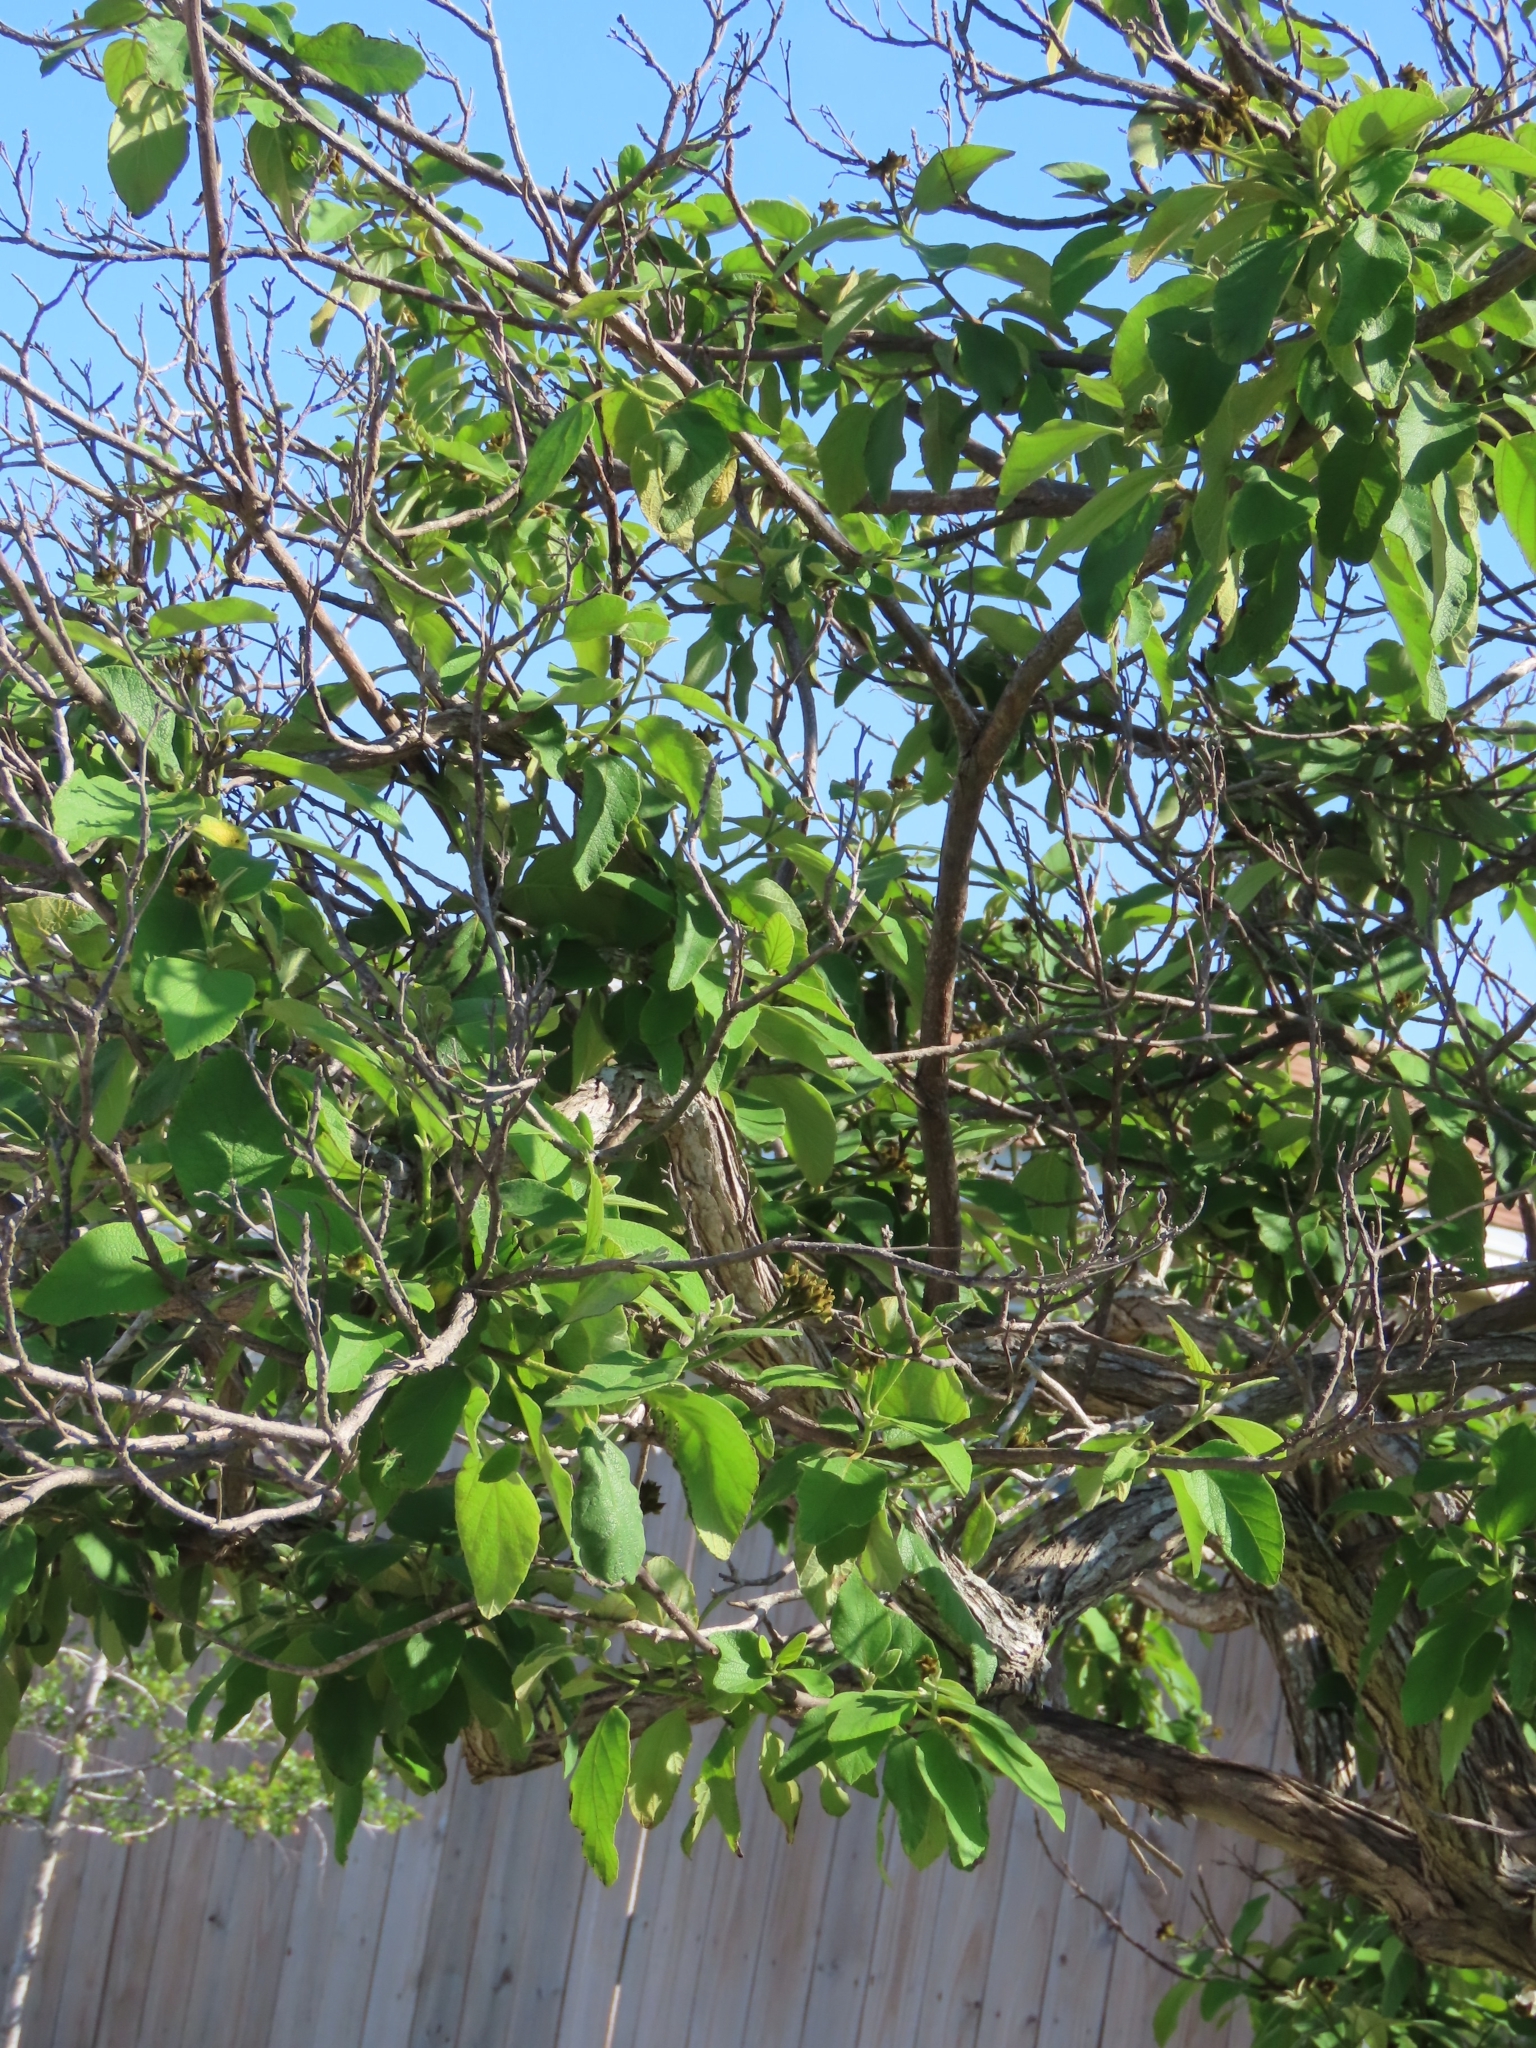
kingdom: Plantae
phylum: Tracheophyta
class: Magnoliopsida
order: Boraginales
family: Cordiaceae
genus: Cordia
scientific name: Cordia boissieri
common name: Mexican-olive
